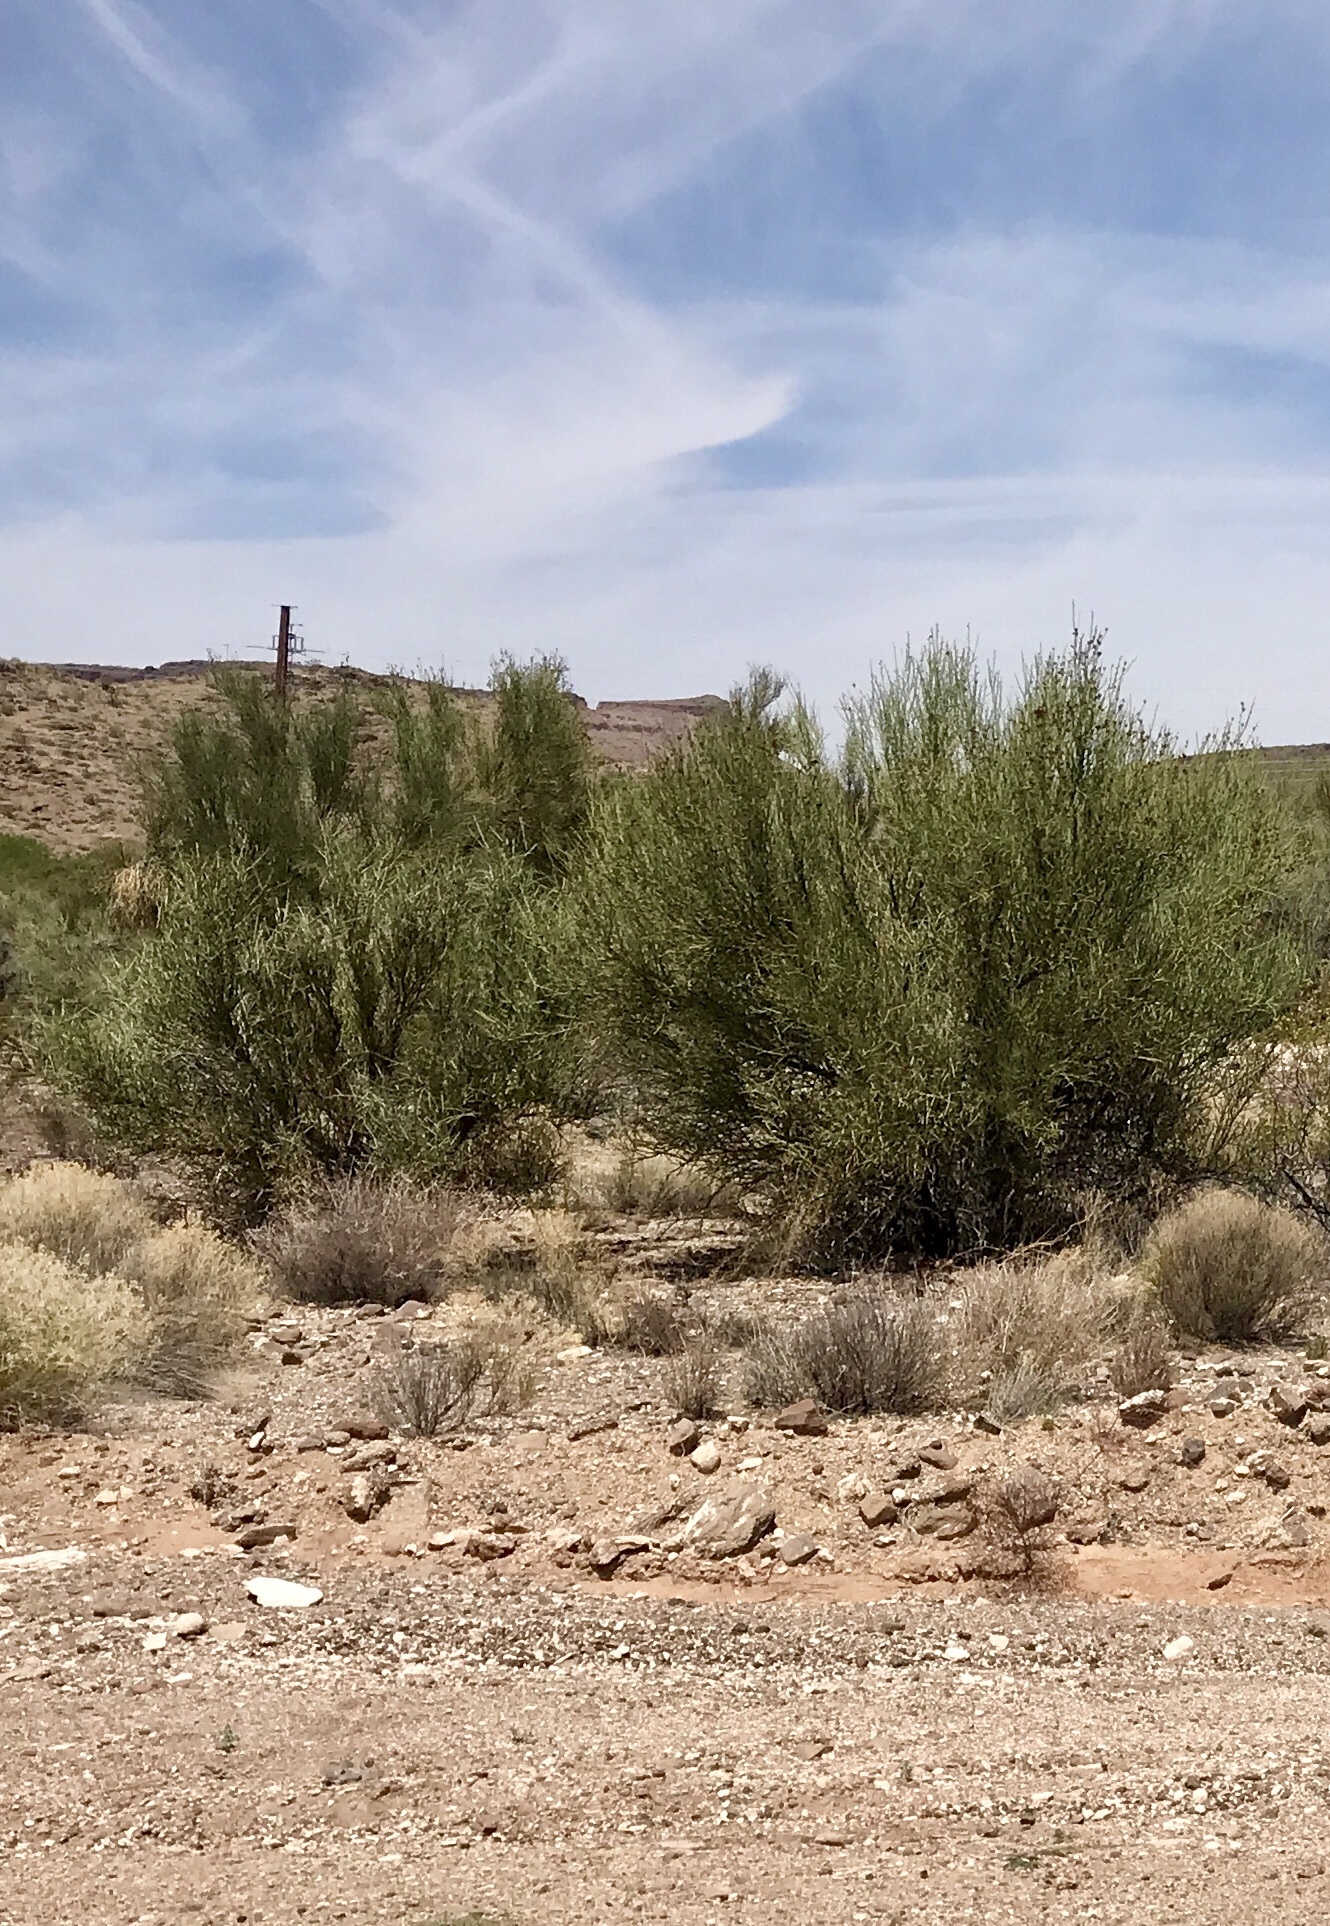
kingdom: Plantae
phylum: Tracheophyta
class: Magnoliopsida
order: Celastrales
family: Celastraceae
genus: Canotia
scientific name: Canotia holacantha
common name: Crucifixion thorns
